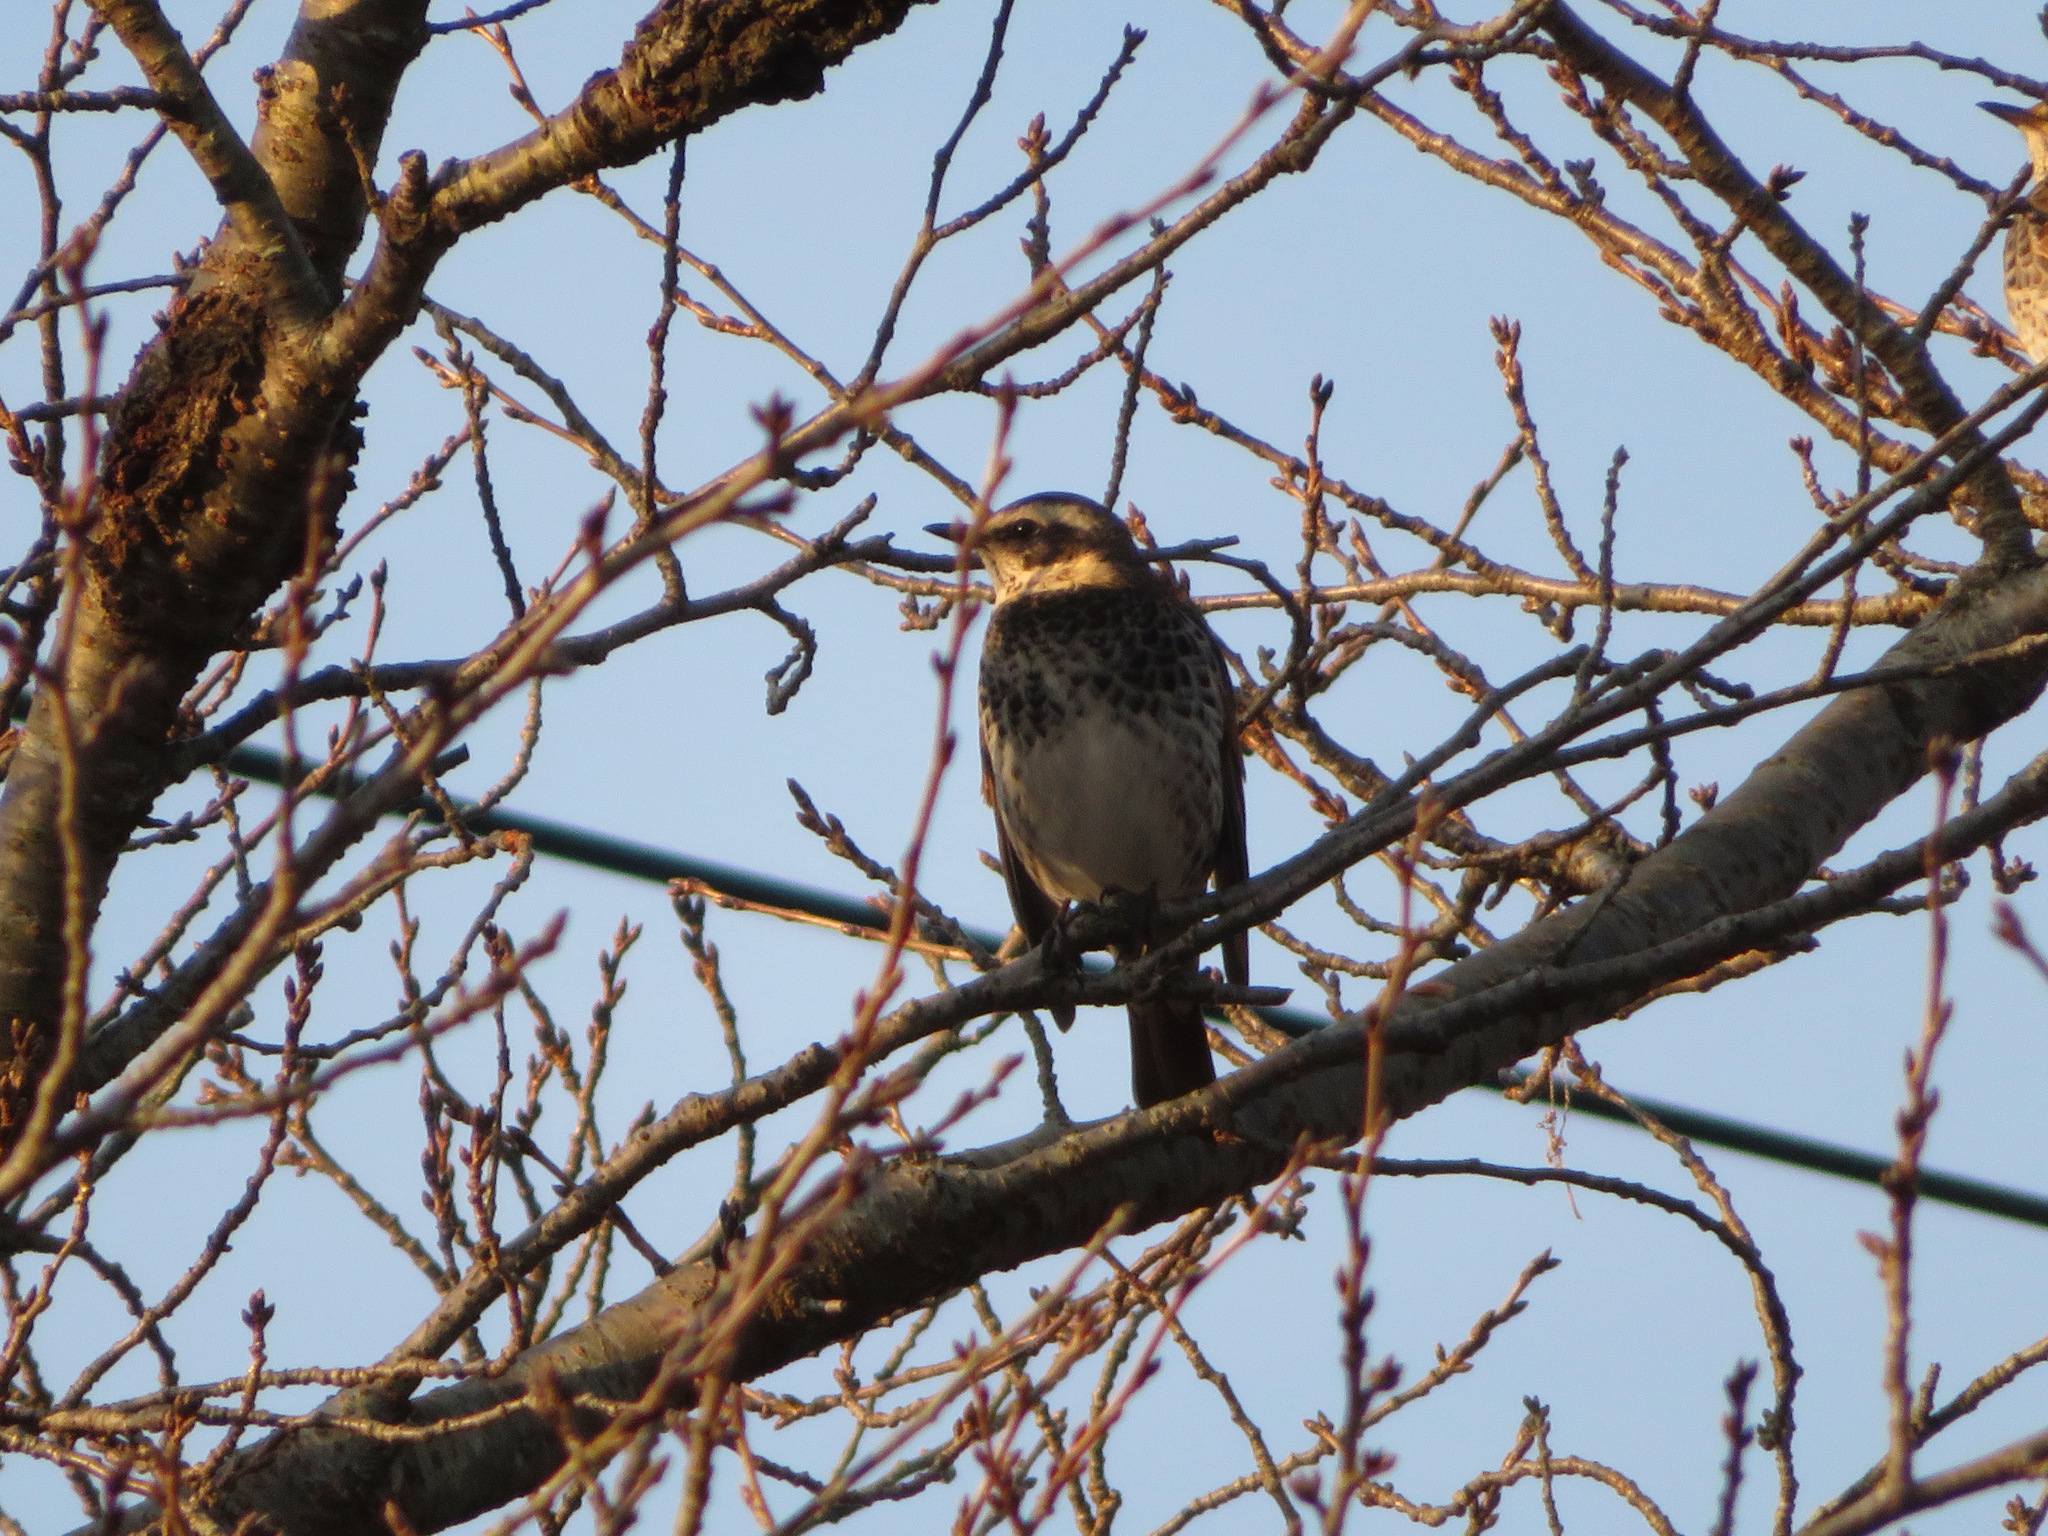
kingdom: Animalia
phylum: Chordata
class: Aves
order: Passeriformes
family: Turdidae
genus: Turdus
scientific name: Turdus eunomus
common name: Dusky thrush
